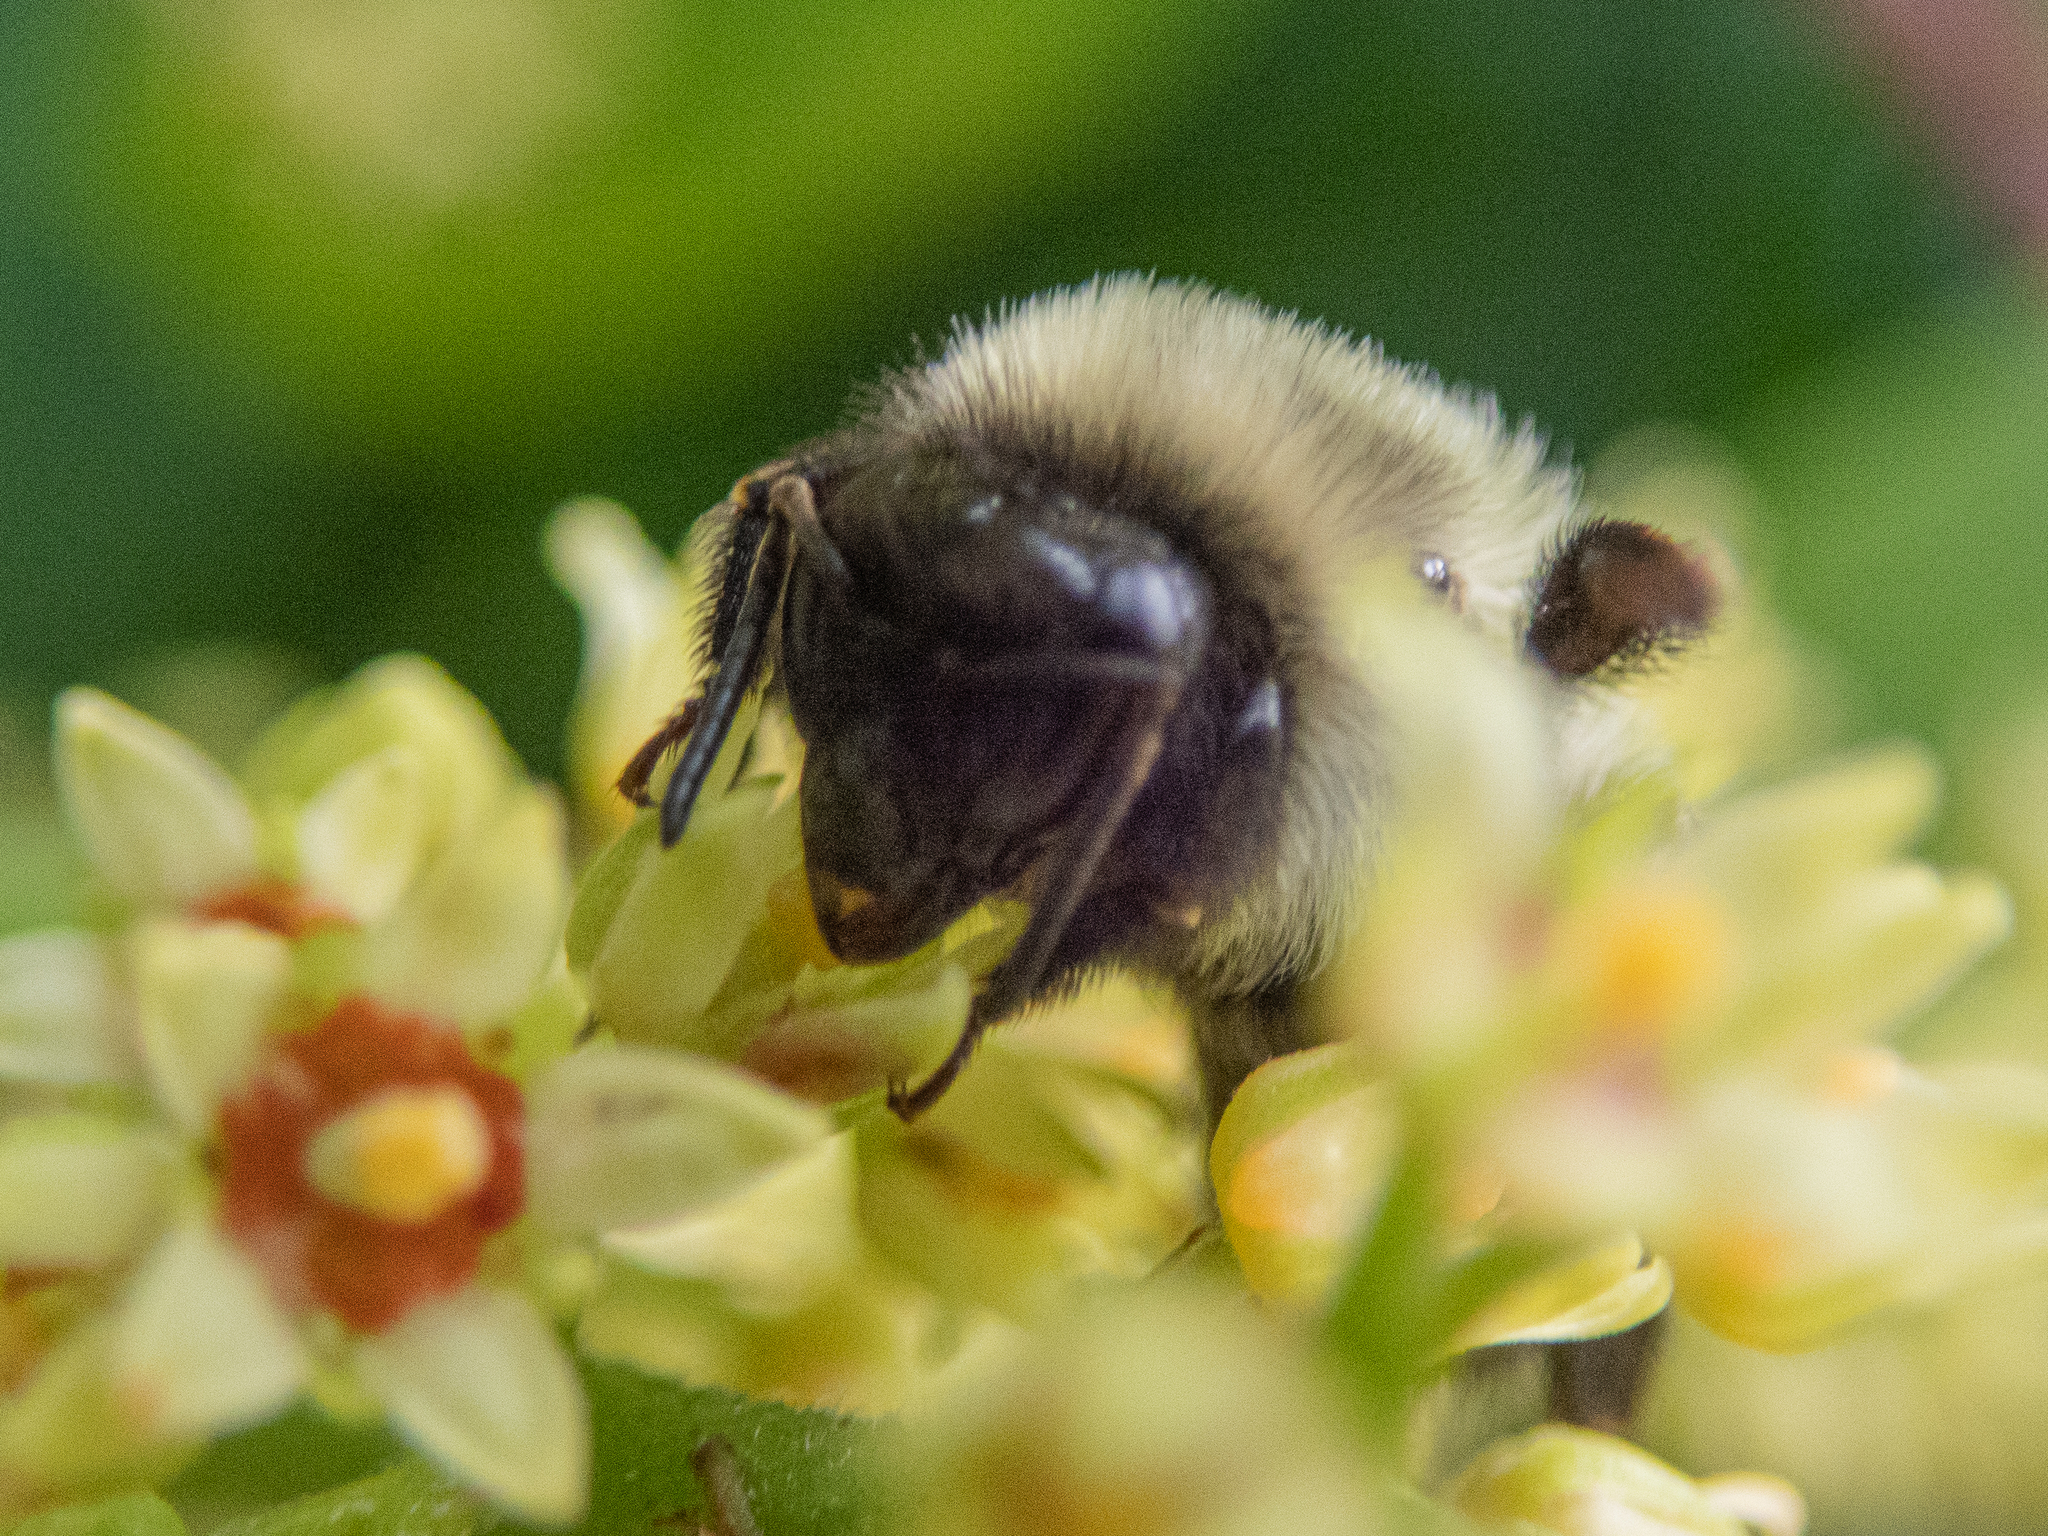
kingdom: Animalia
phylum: Arthropoda
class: Insecta
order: Hymenoptera
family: Apidae
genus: Bombus
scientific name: Bombus impatiens
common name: Common eastern bumble bee
